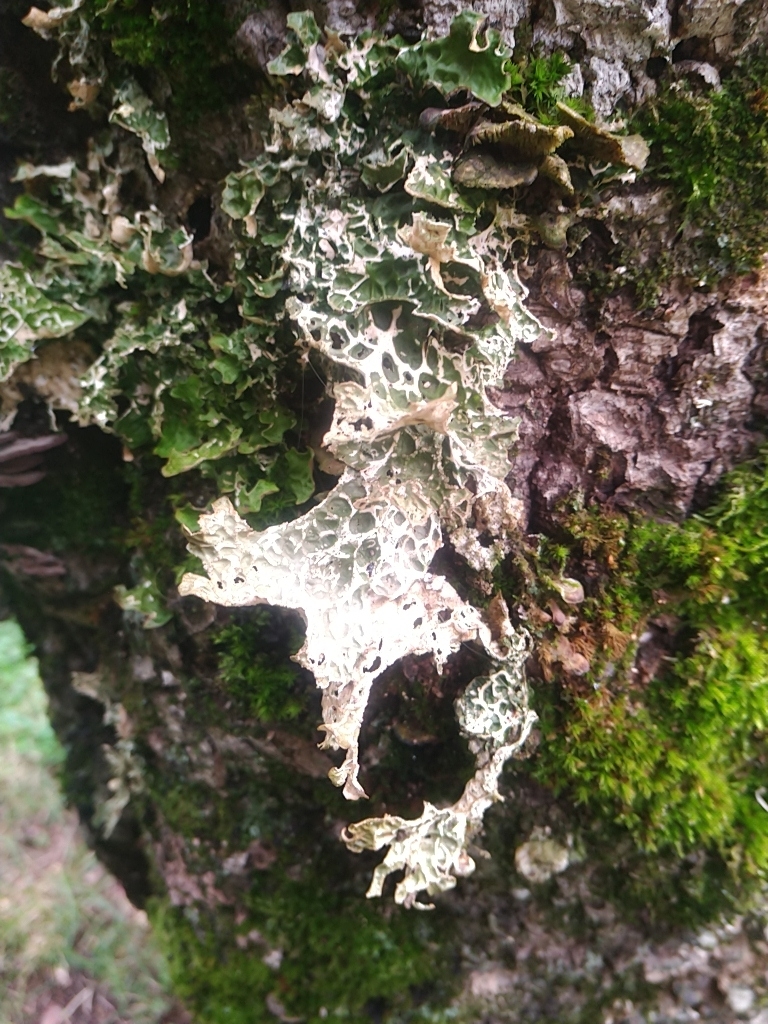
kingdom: Fungi
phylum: Ascomycota
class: Lecanoromycetes
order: Peltigerales
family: Lobariaceae
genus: Lobaria
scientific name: Lobaria pulmonaria
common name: Lungwort
